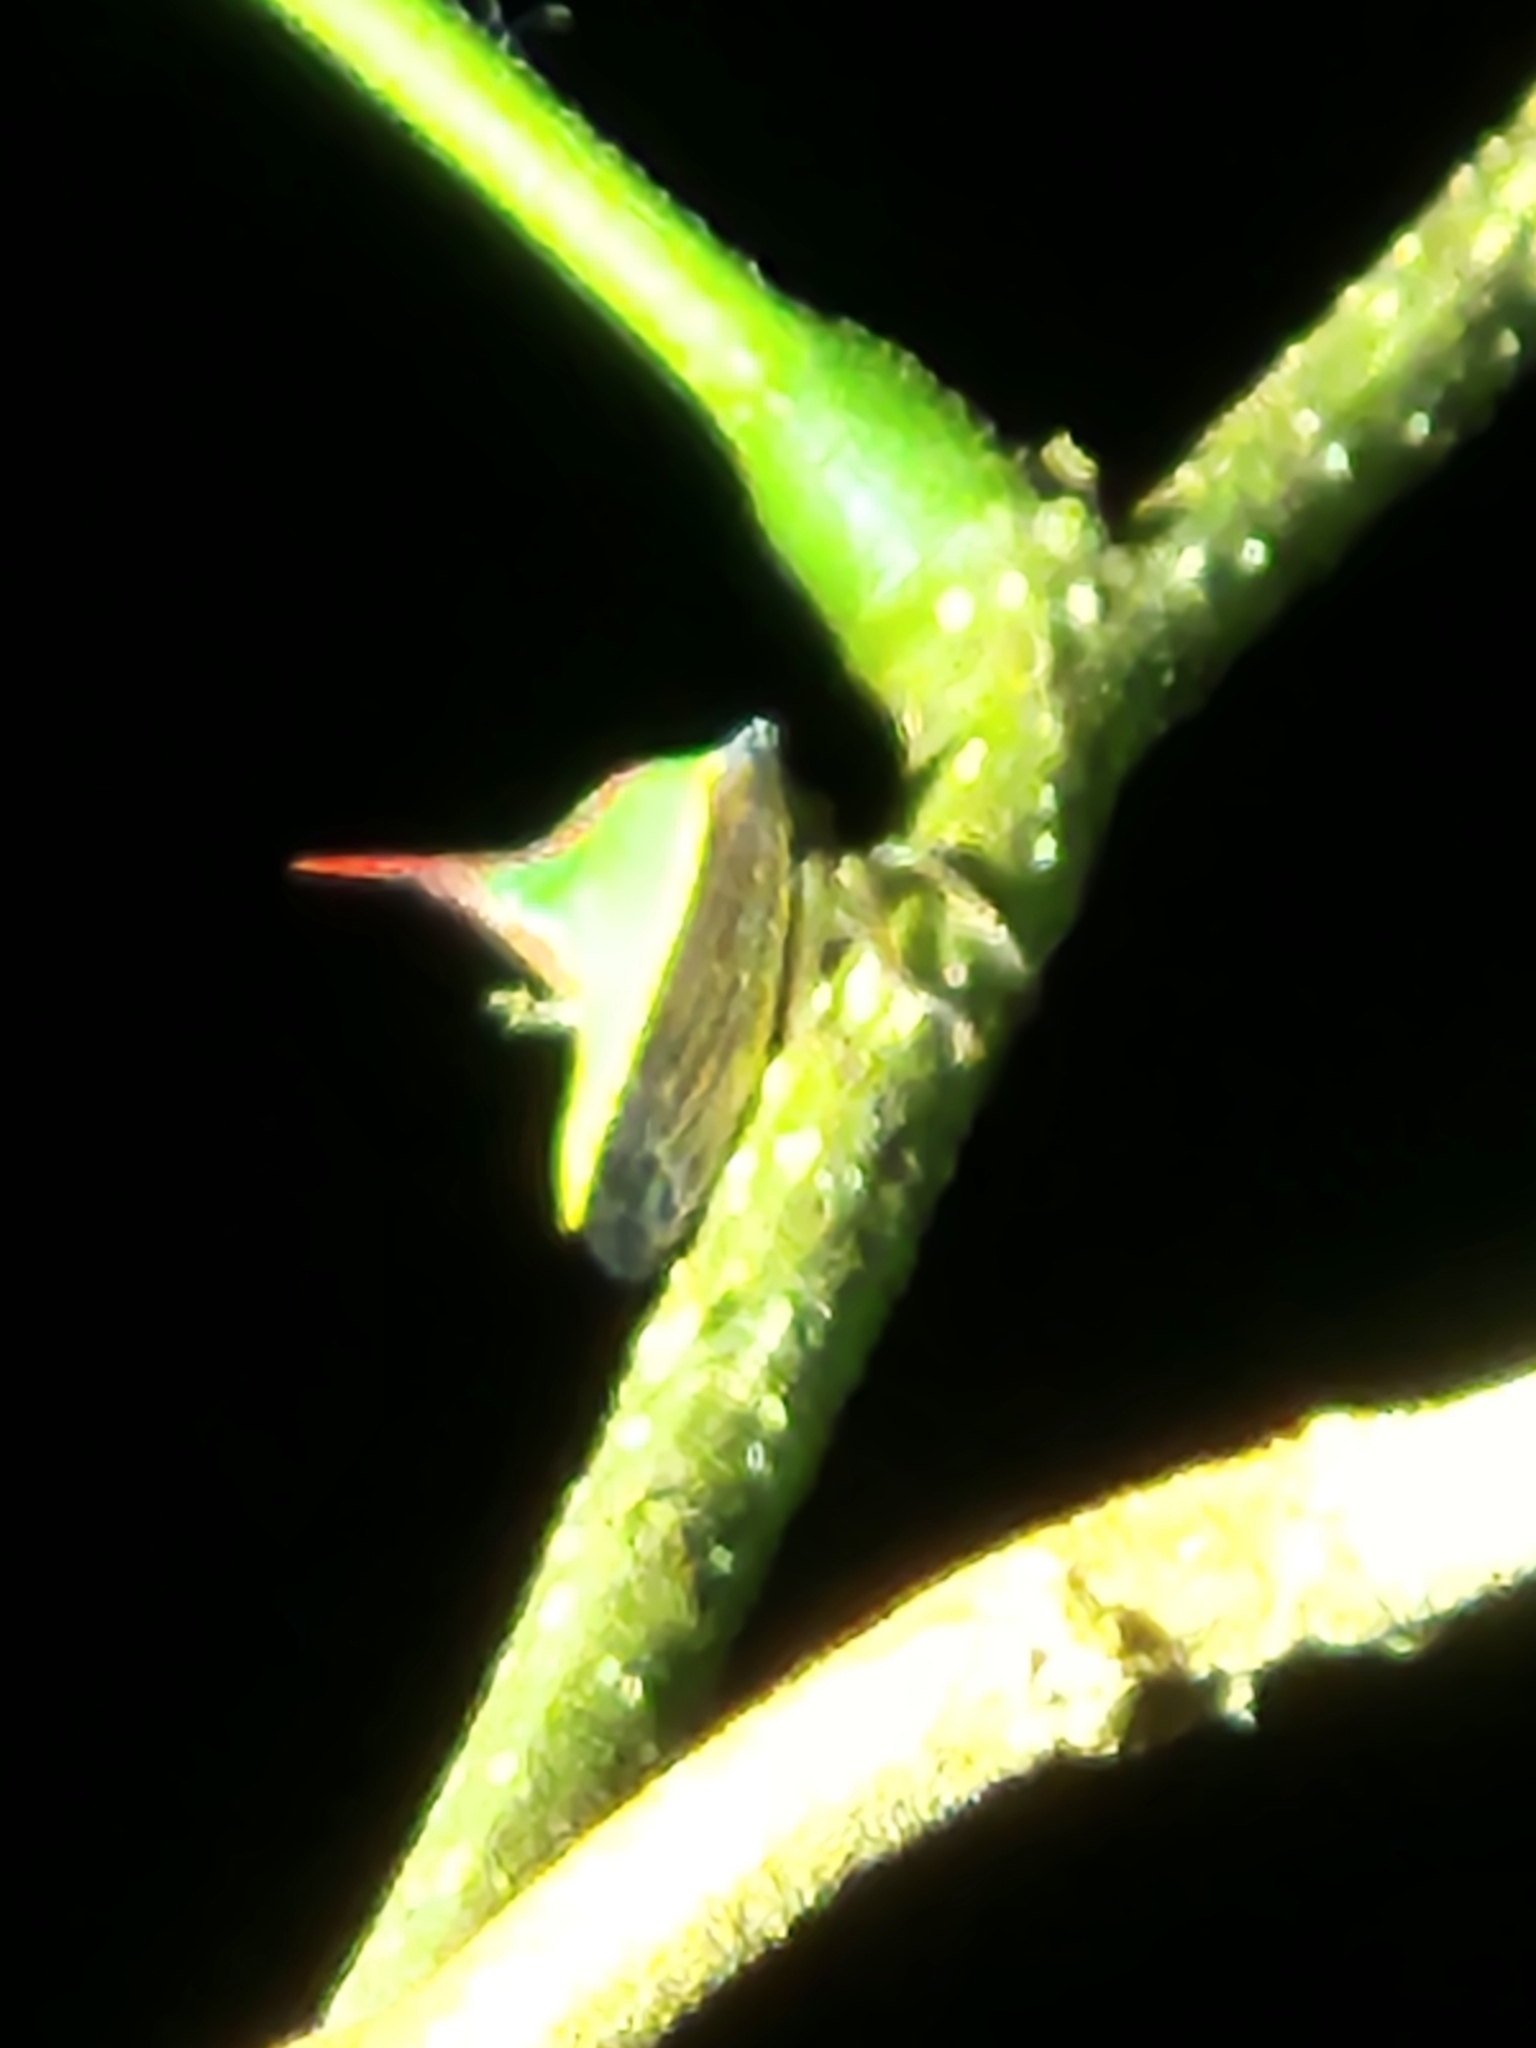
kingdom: Animalia
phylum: Arthropoda
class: Insecta
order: Hemiptera
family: Membracidae
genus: Umbonia
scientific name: Umbonia ataliba
